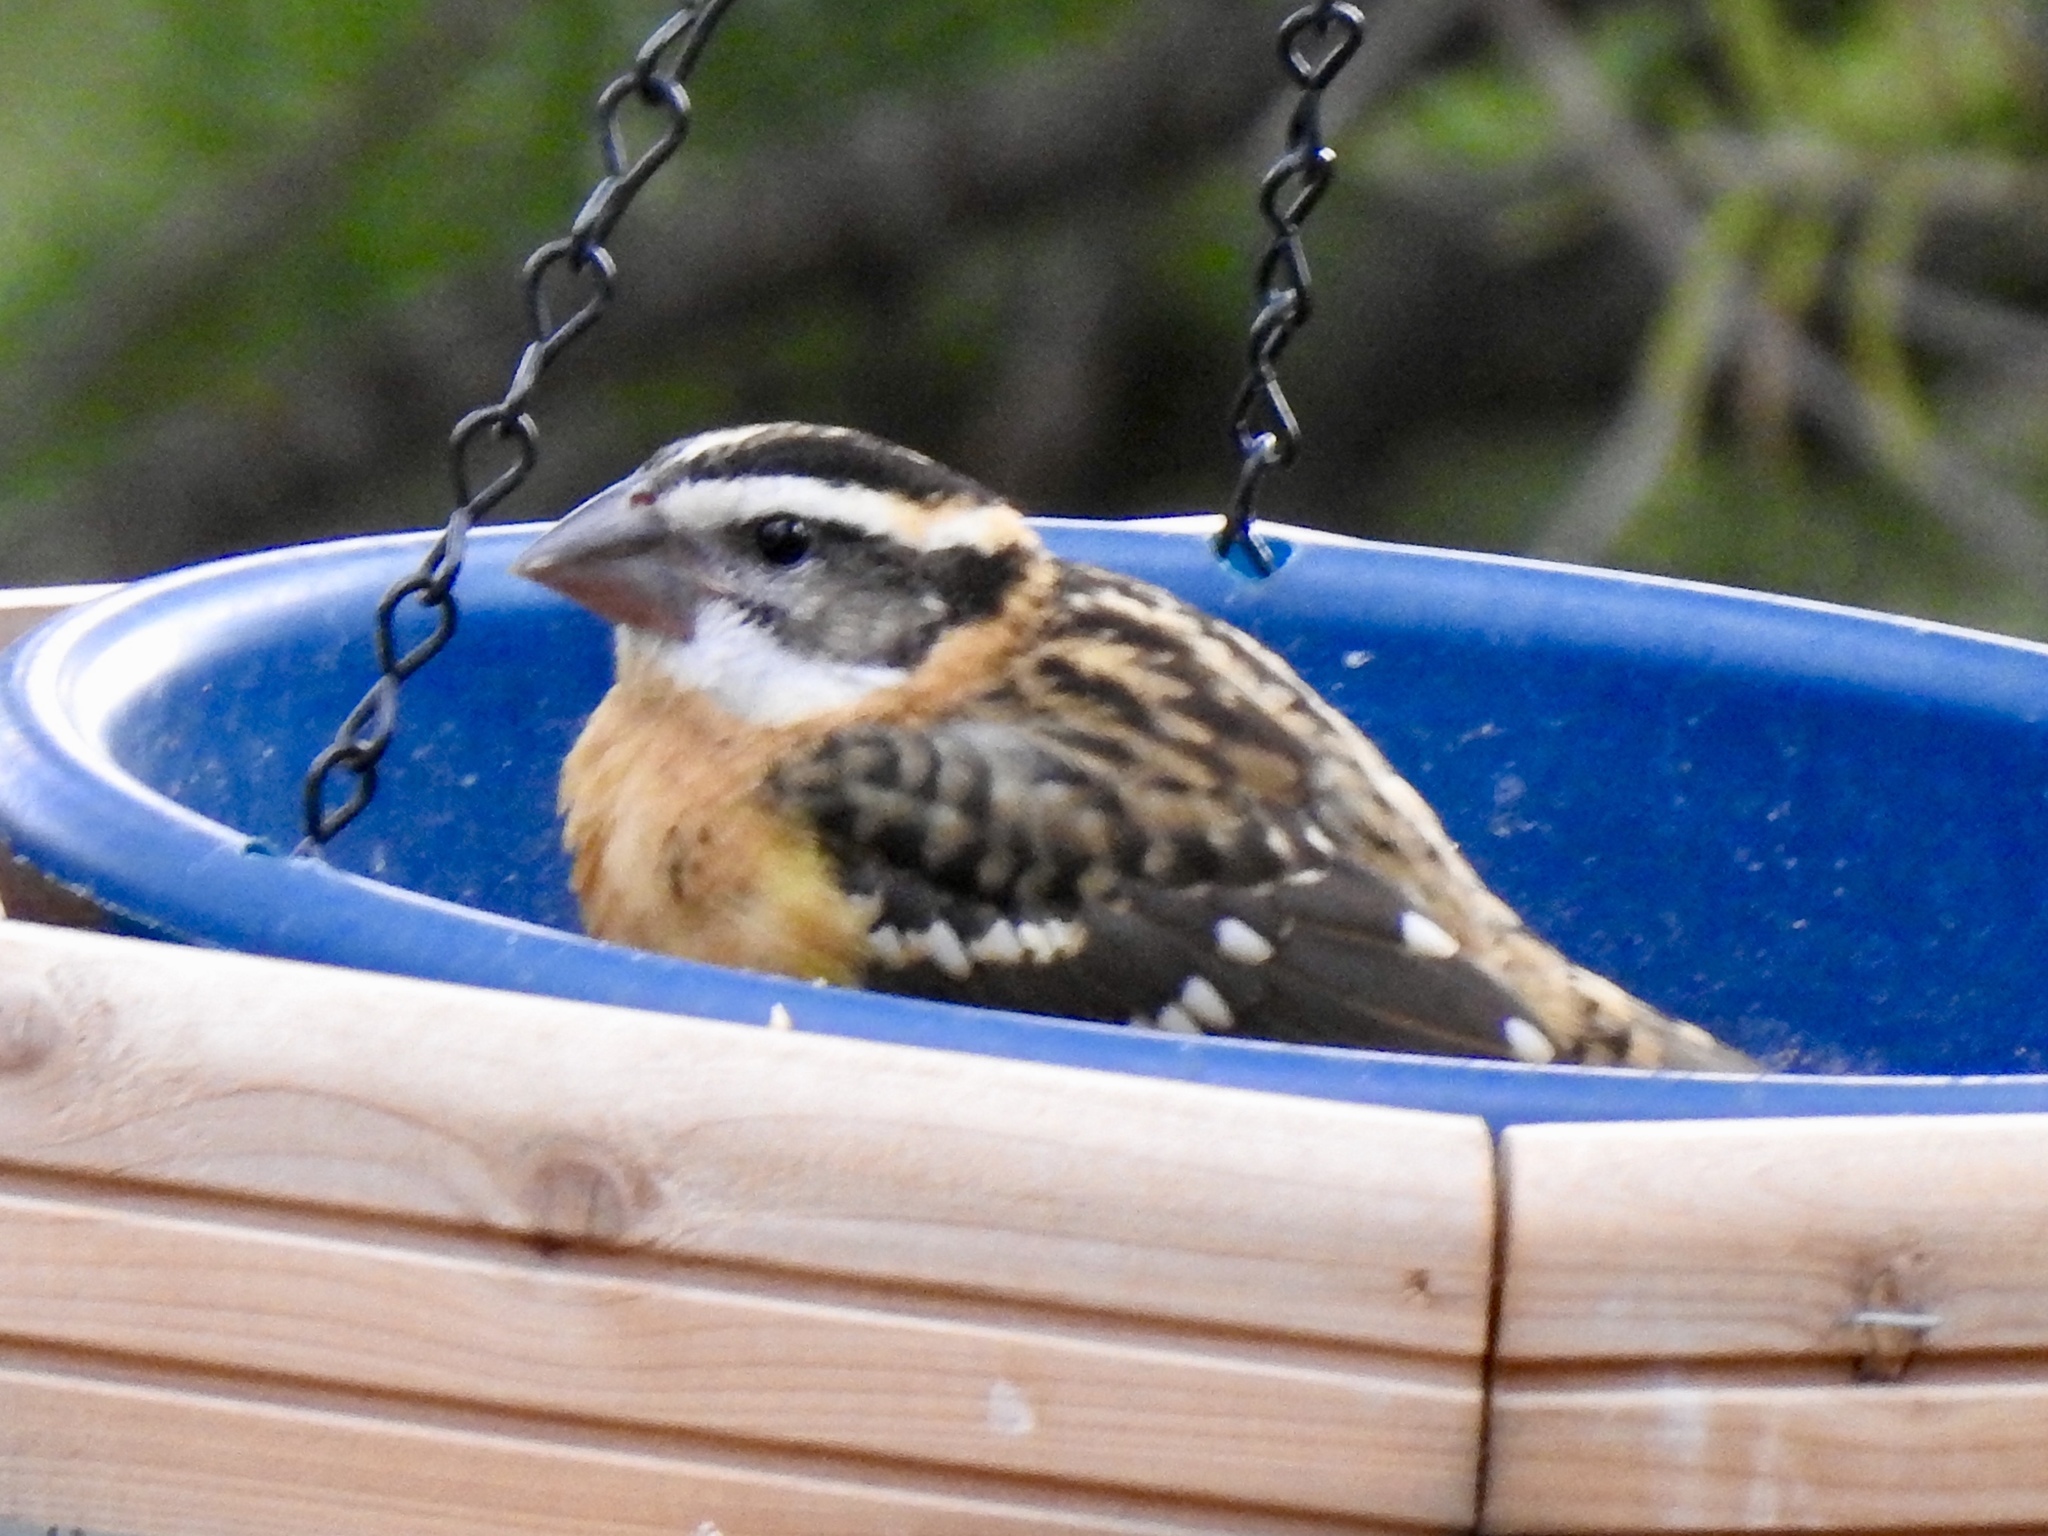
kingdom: Animalia
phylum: Chordata
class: Aves
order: Passeriformes
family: Cardinalidae
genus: Pheucticus
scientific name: Pheucticus melanocephalus
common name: Black-headed grosbeak
